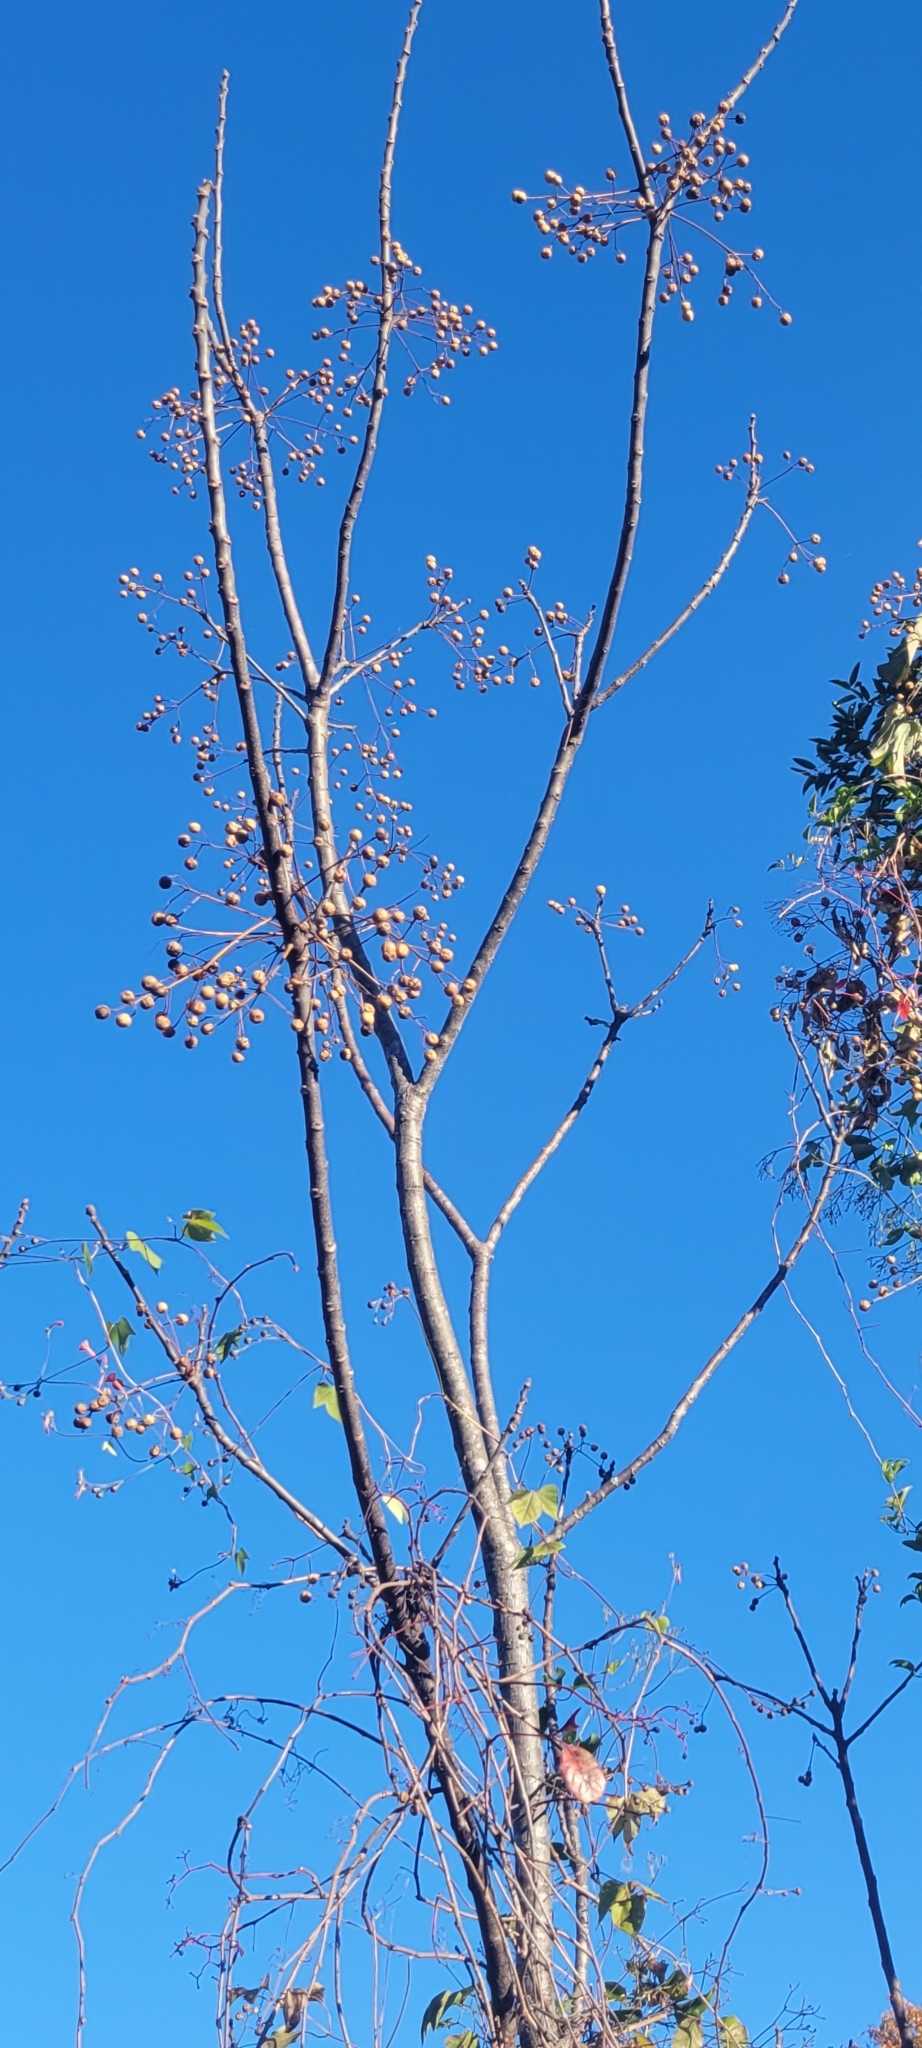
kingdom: Plantae
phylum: Tracheophyta
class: Magnoliopsida
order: Sapindales
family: Meliaceae
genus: Melia
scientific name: Melia azedarach
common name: Chinaberrytree
